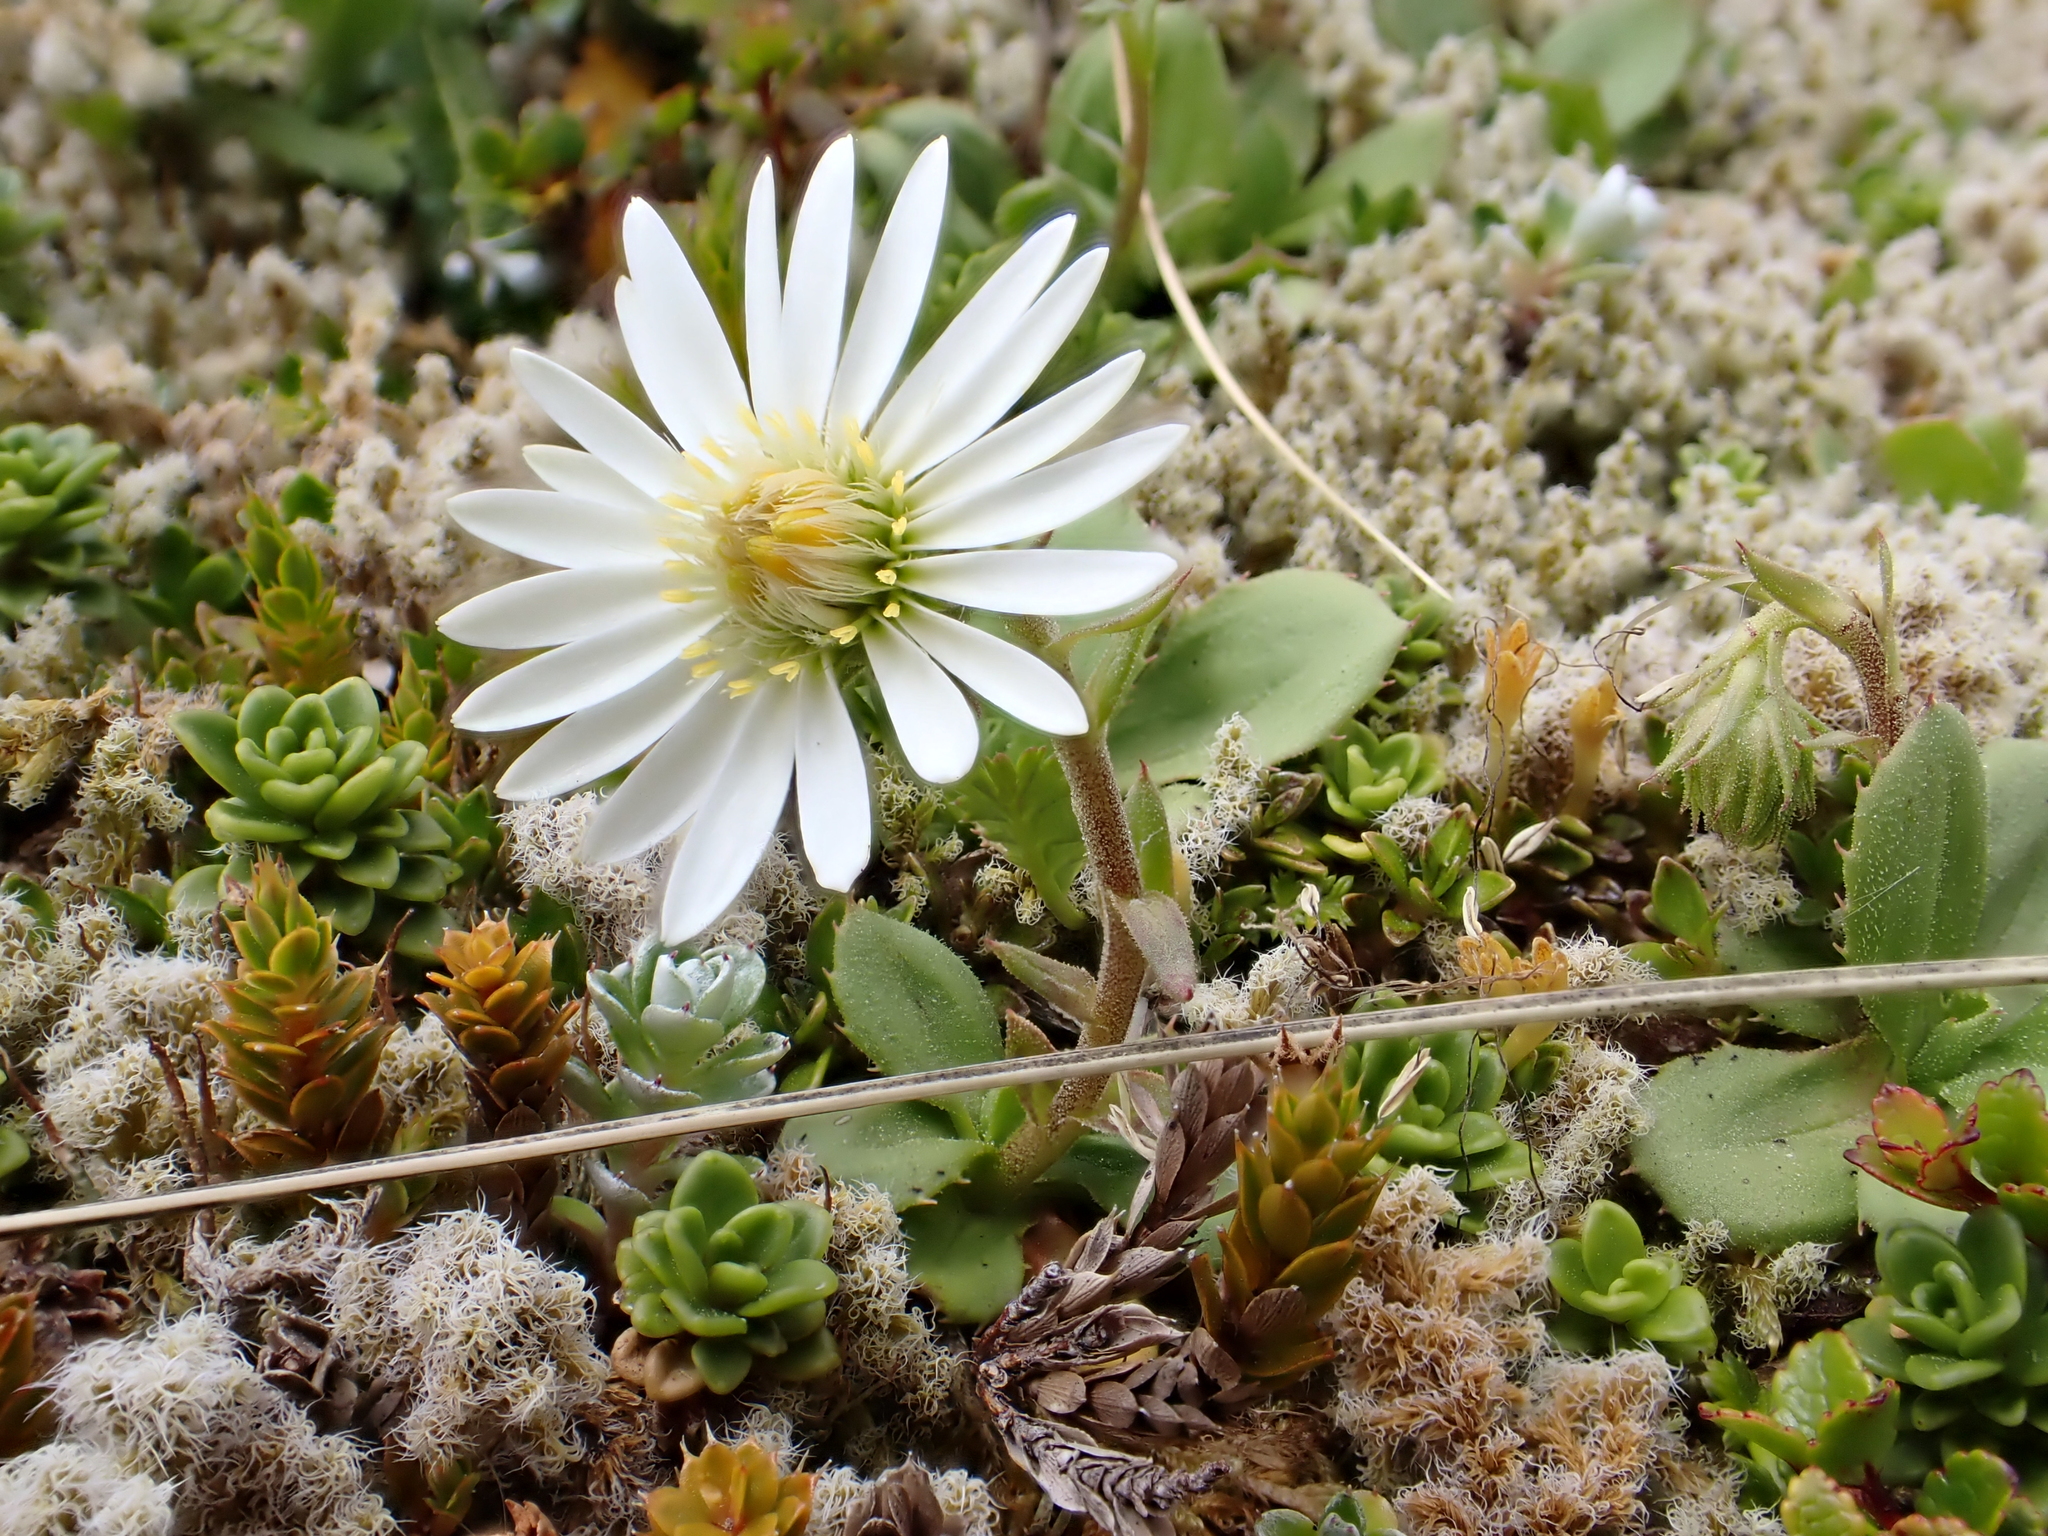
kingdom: Plantae
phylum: Tracheophyta
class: Magnoliopsida
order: Asterales
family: Asteraceae
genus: Celmisia
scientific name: Celmisia glandulosa
